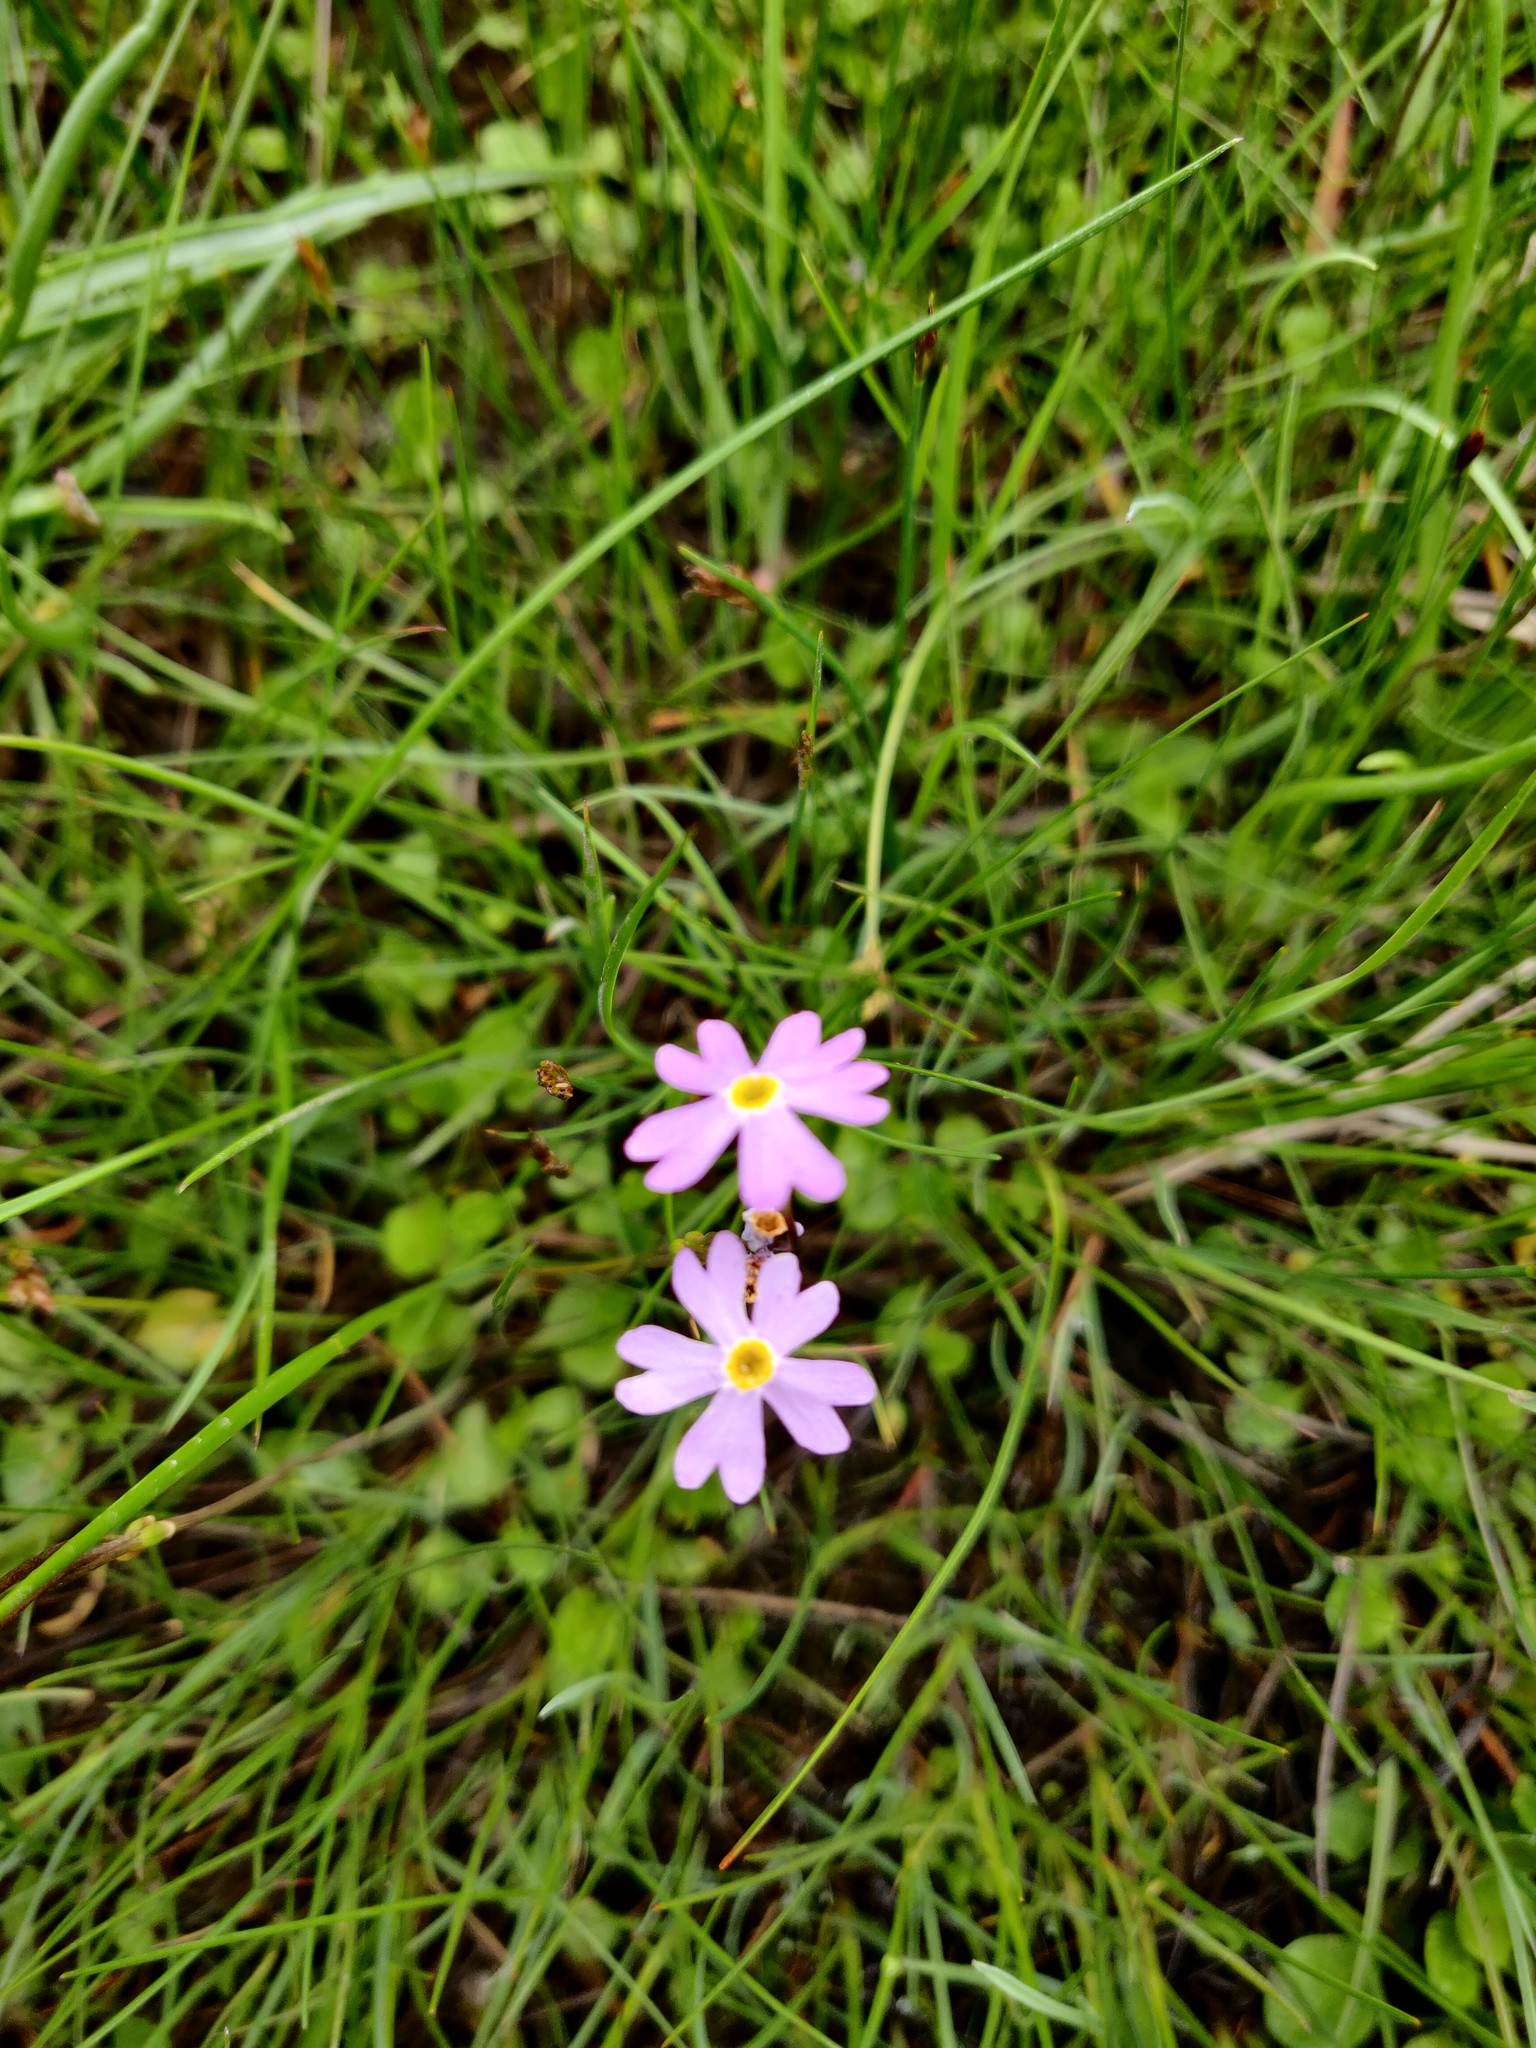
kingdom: Plantae
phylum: Tracheophyta
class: Magnoliopsida
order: Ericales
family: Primulaceae
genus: Primula
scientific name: Primula nutans
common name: Siberian primrose
